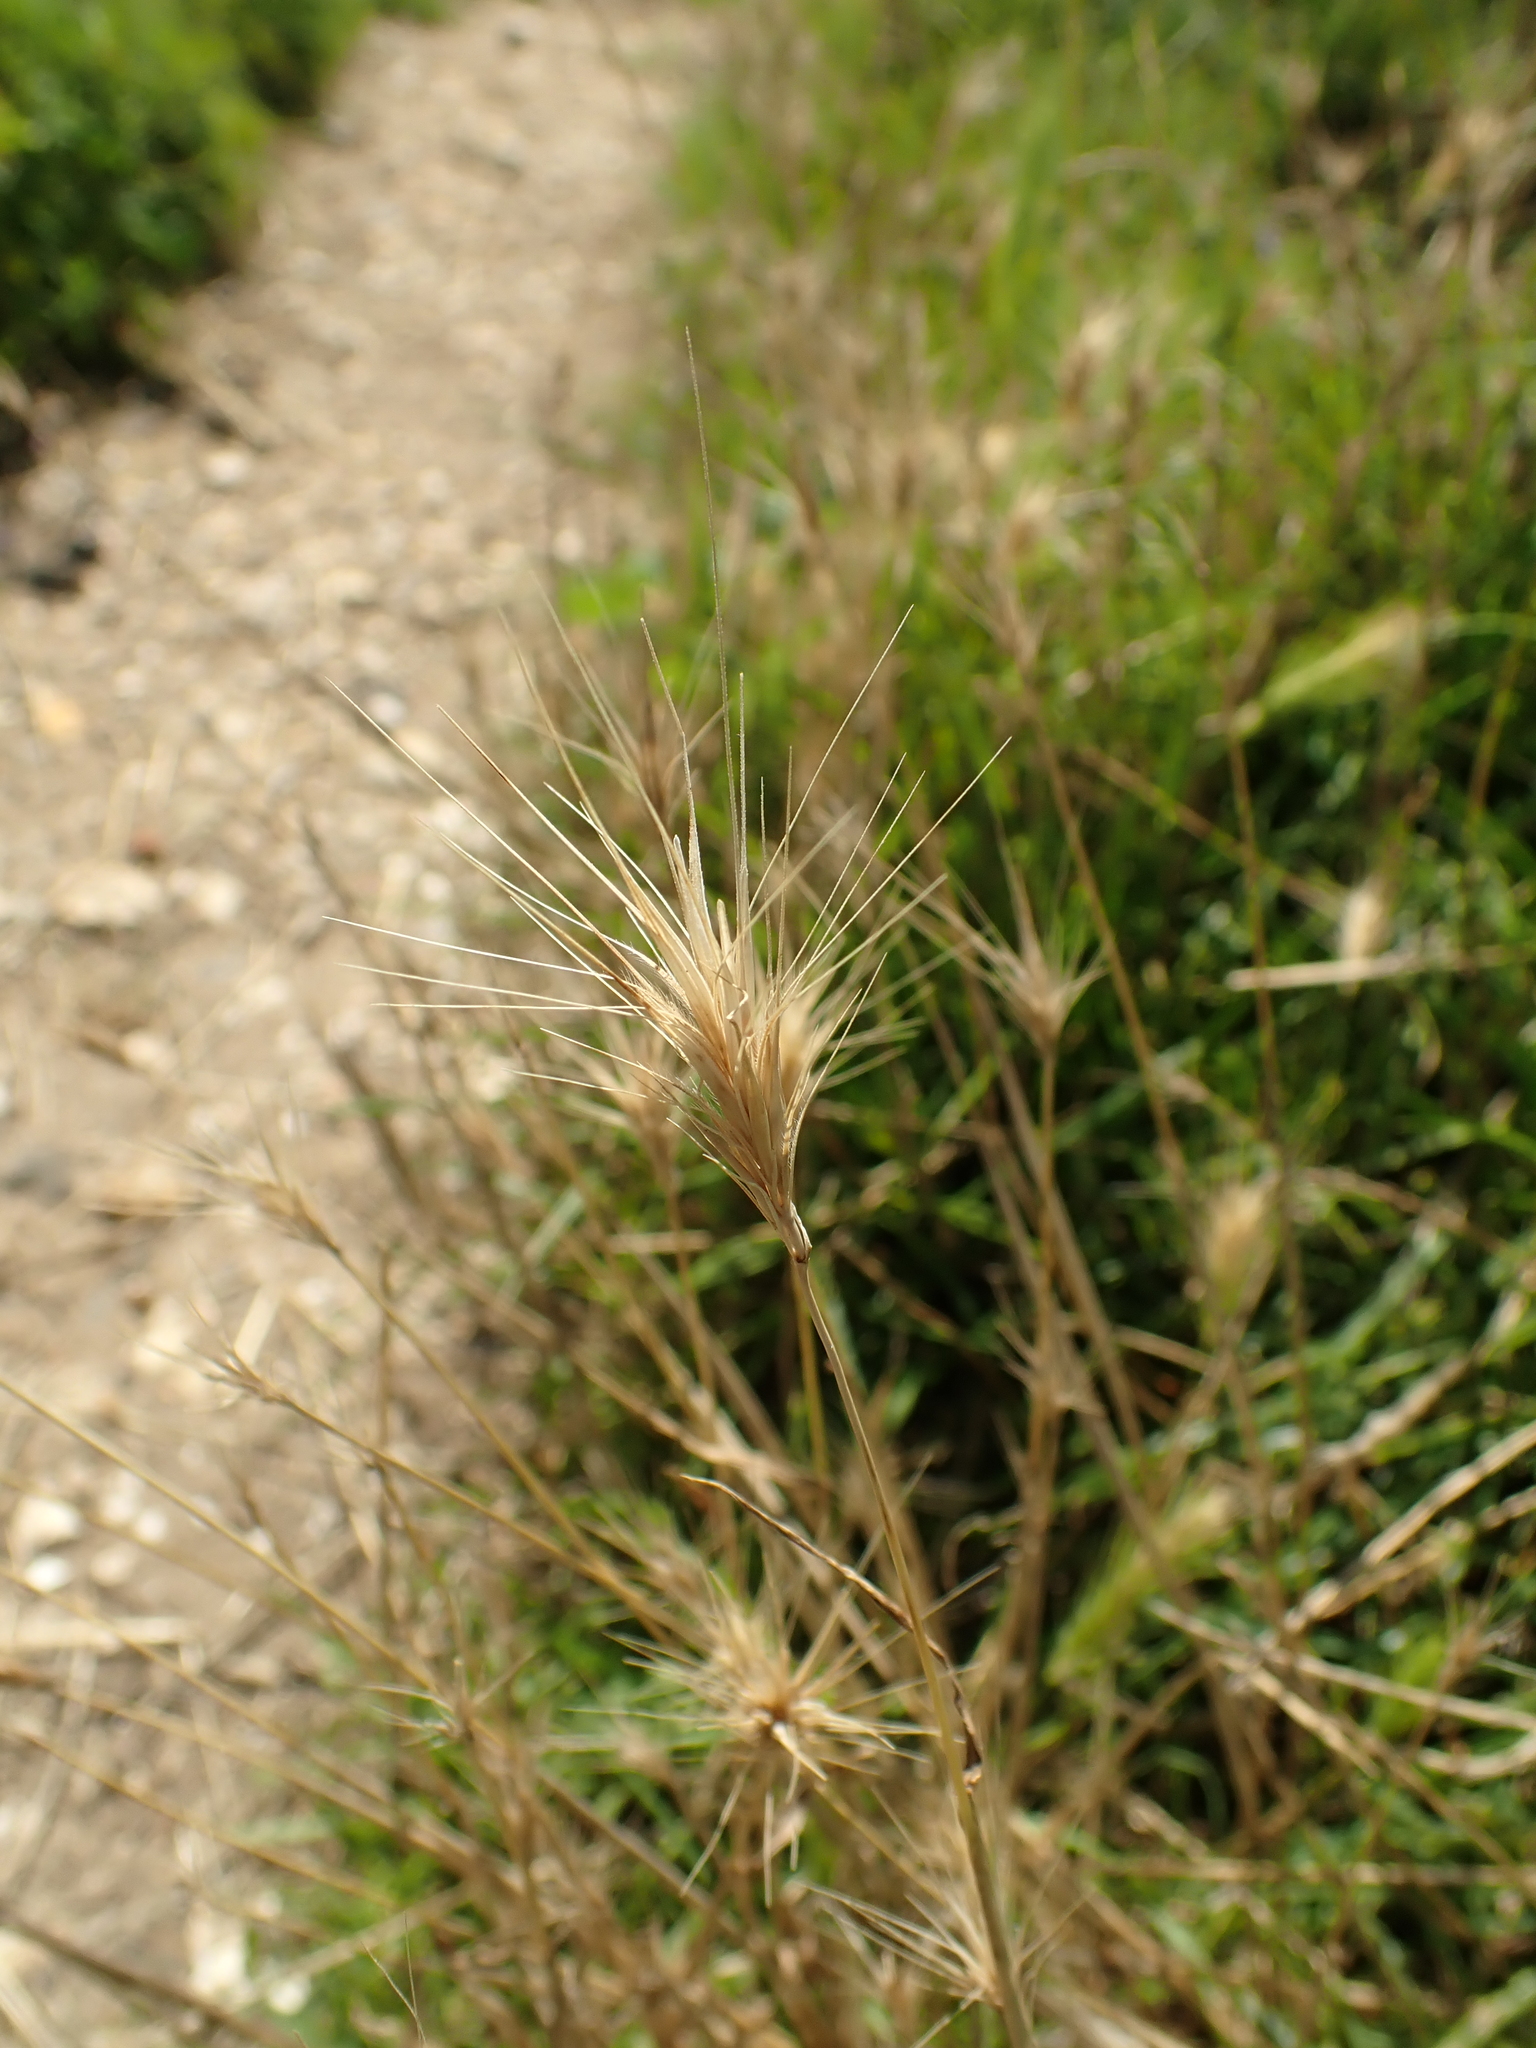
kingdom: Plantae
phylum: Tracheophyta
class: Liliopsida
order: Poales
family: Poaceae
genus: Hordeum
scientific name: Hordeum murinum
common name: Wall barley
